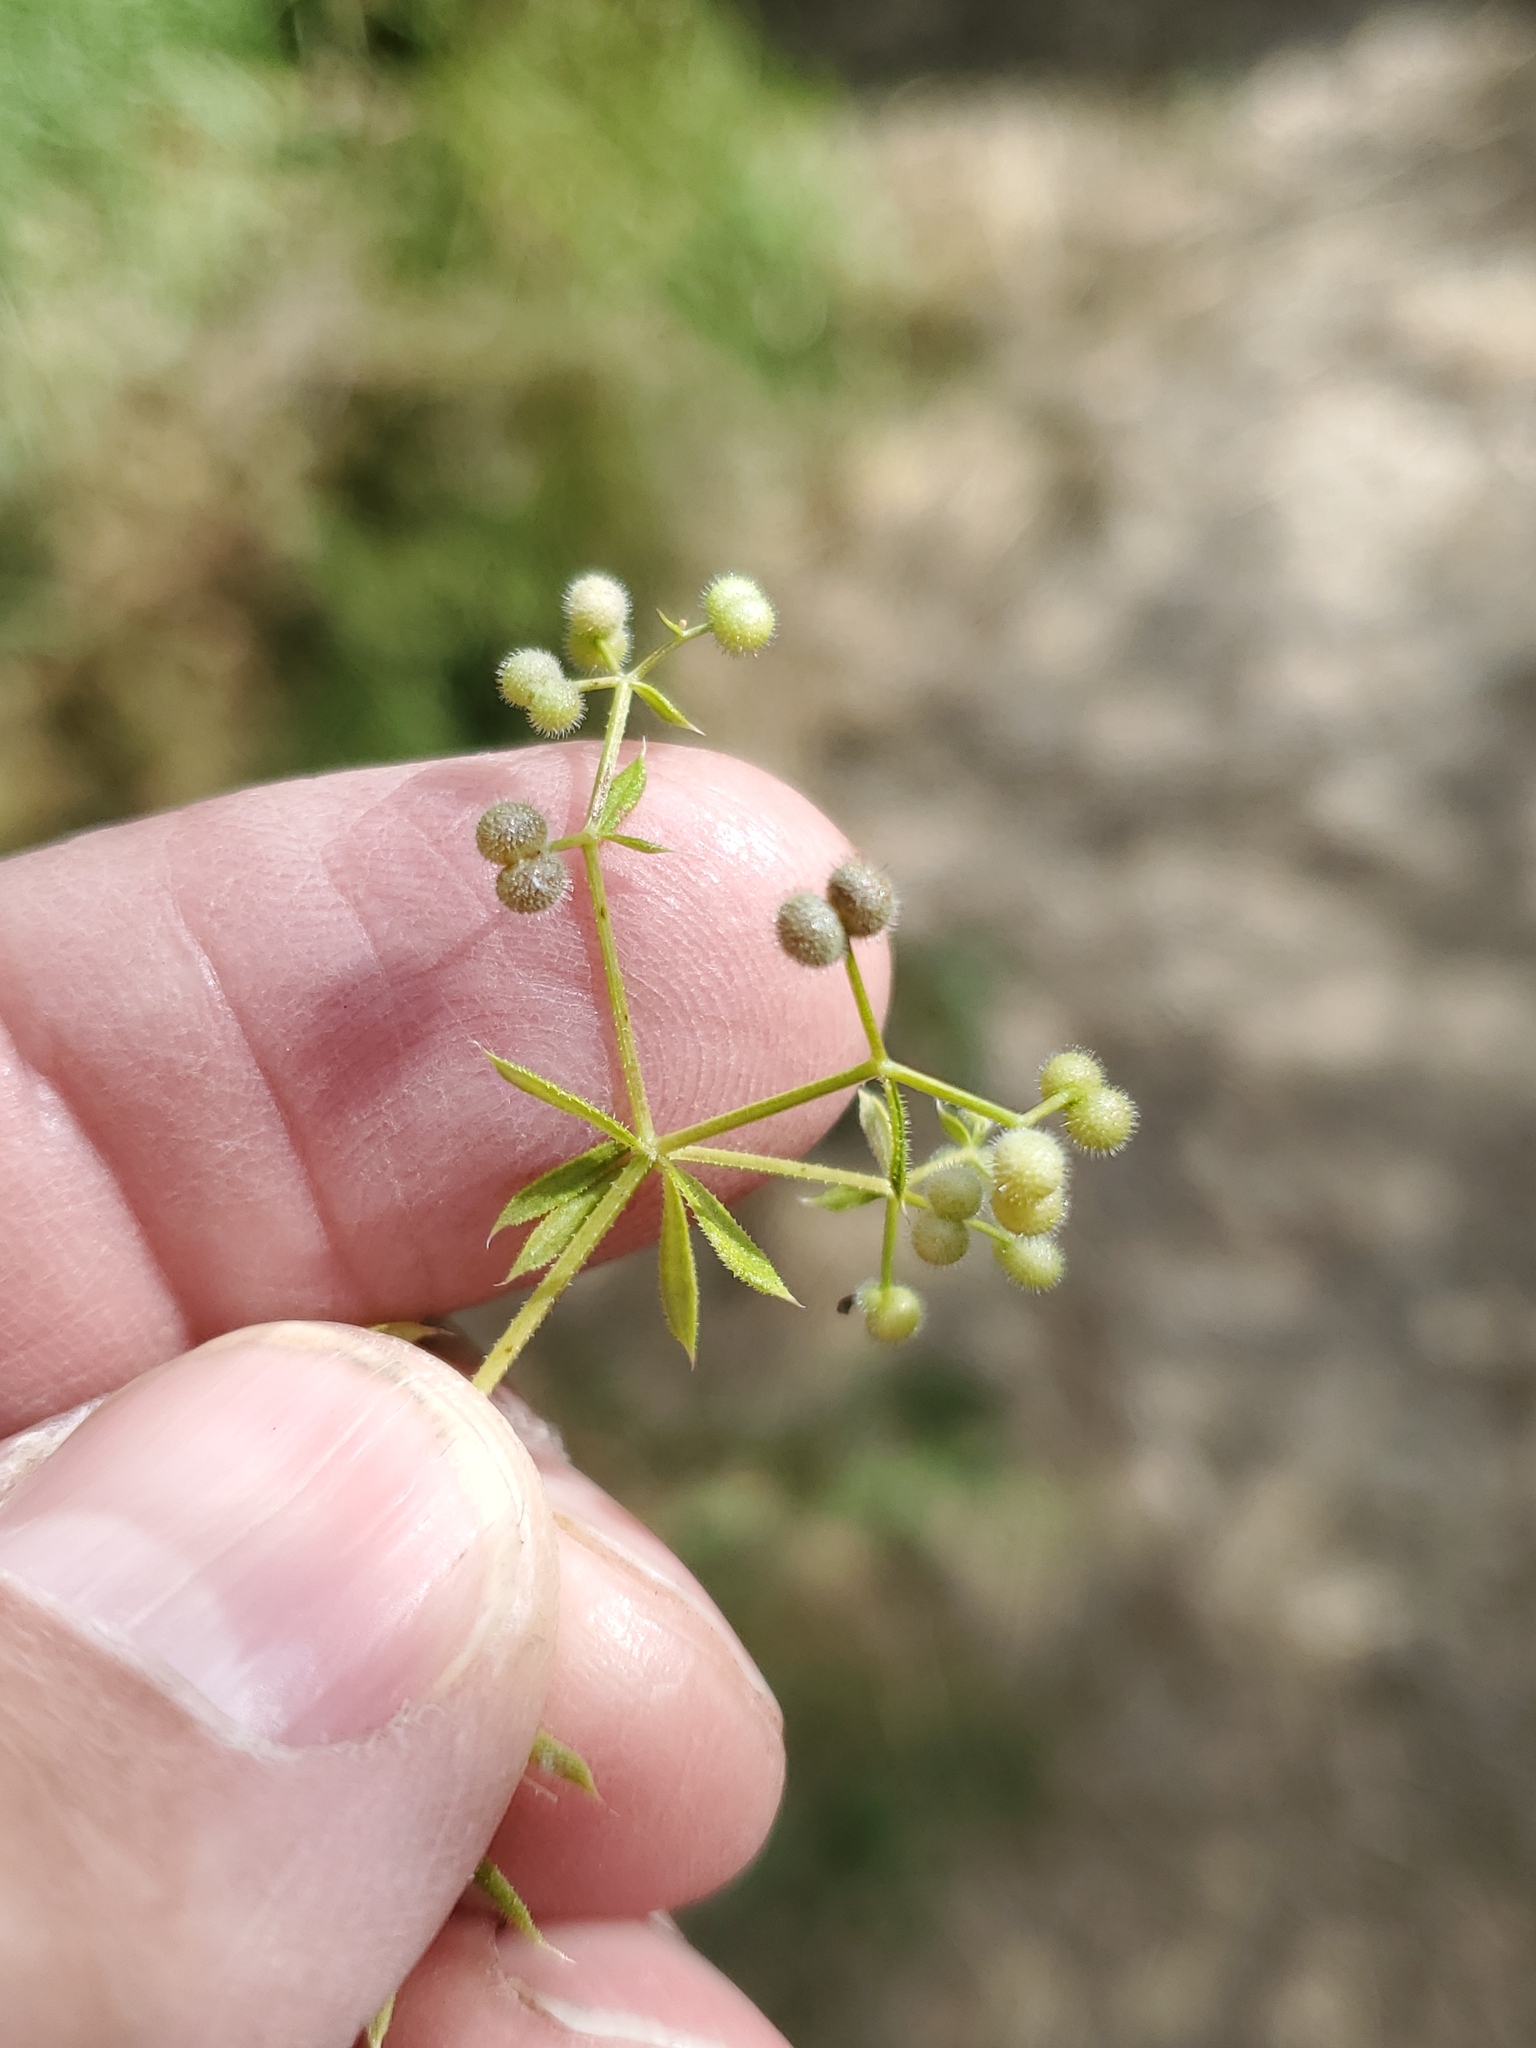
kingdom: Plantae
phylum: Tracheophyta
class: Magnoliopsida
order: Gentianales
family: Rubiaceae
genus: Galium
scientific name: Galium aparine
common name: Cleavers
